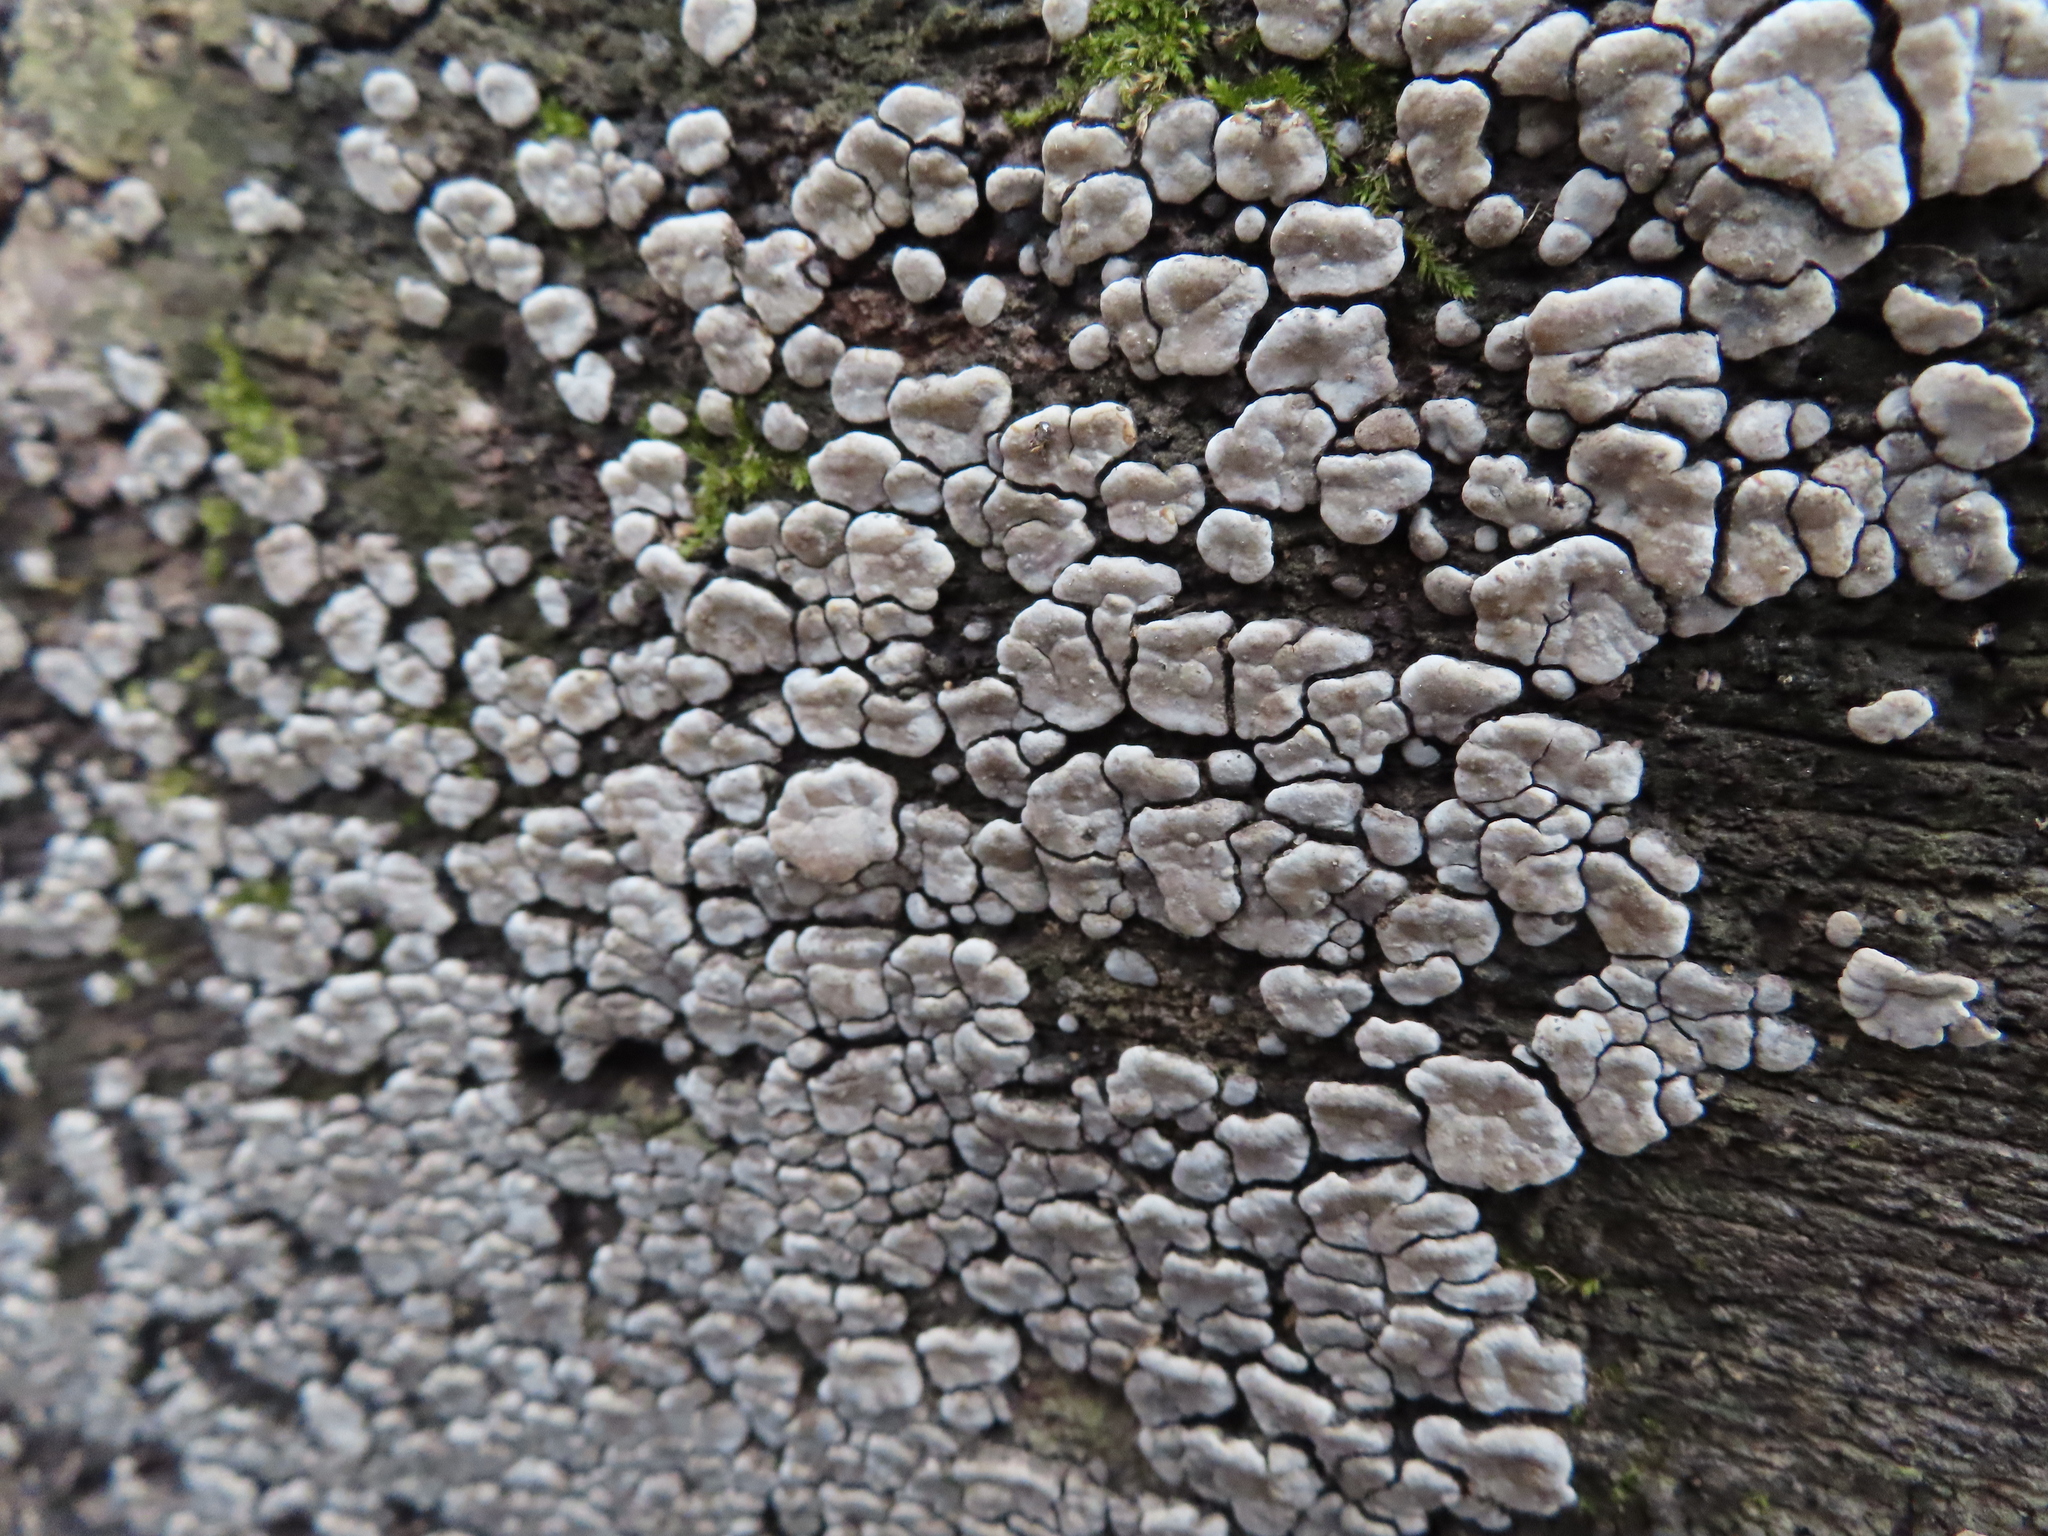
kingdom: Fungi
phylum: Basidiomycota
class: Agaricomycetes
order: Russulales
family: Stereaceae
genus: Xylobolus
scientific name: Xylobolus frustulatus
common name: Ceramic parchment
